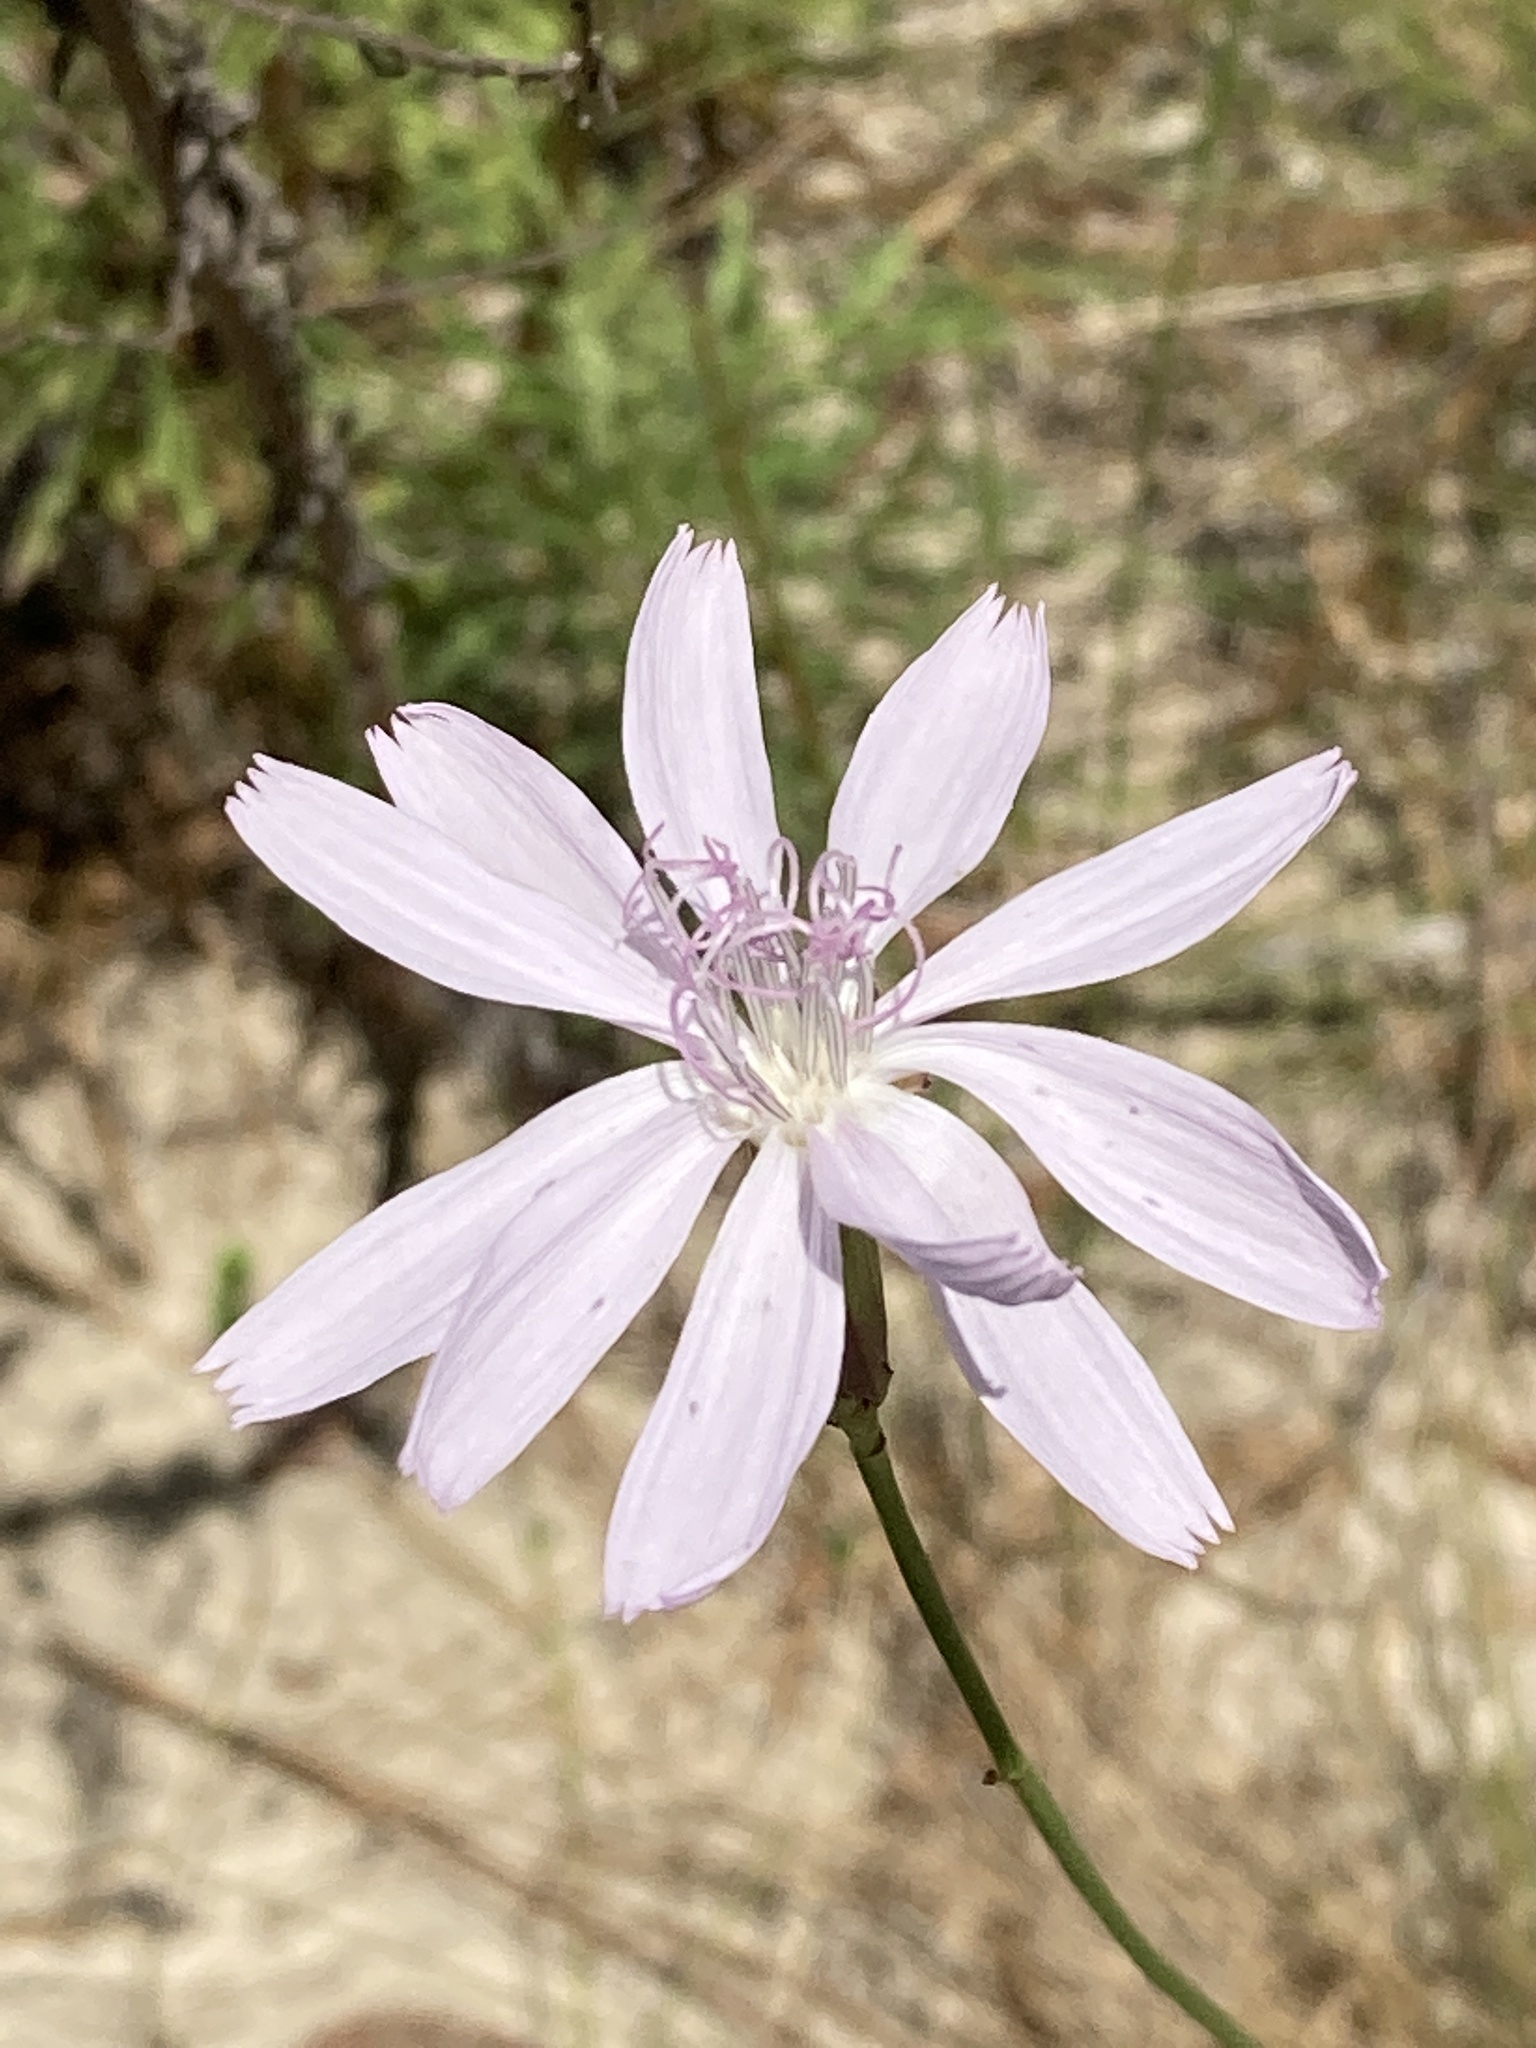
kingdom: Plantae
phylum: Tracheophyta
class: Magnoliopsida
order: Asterales
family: Asteraceae
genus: Lygodesmia
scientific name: Lygodesmia aphylla
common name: Rose-rush
